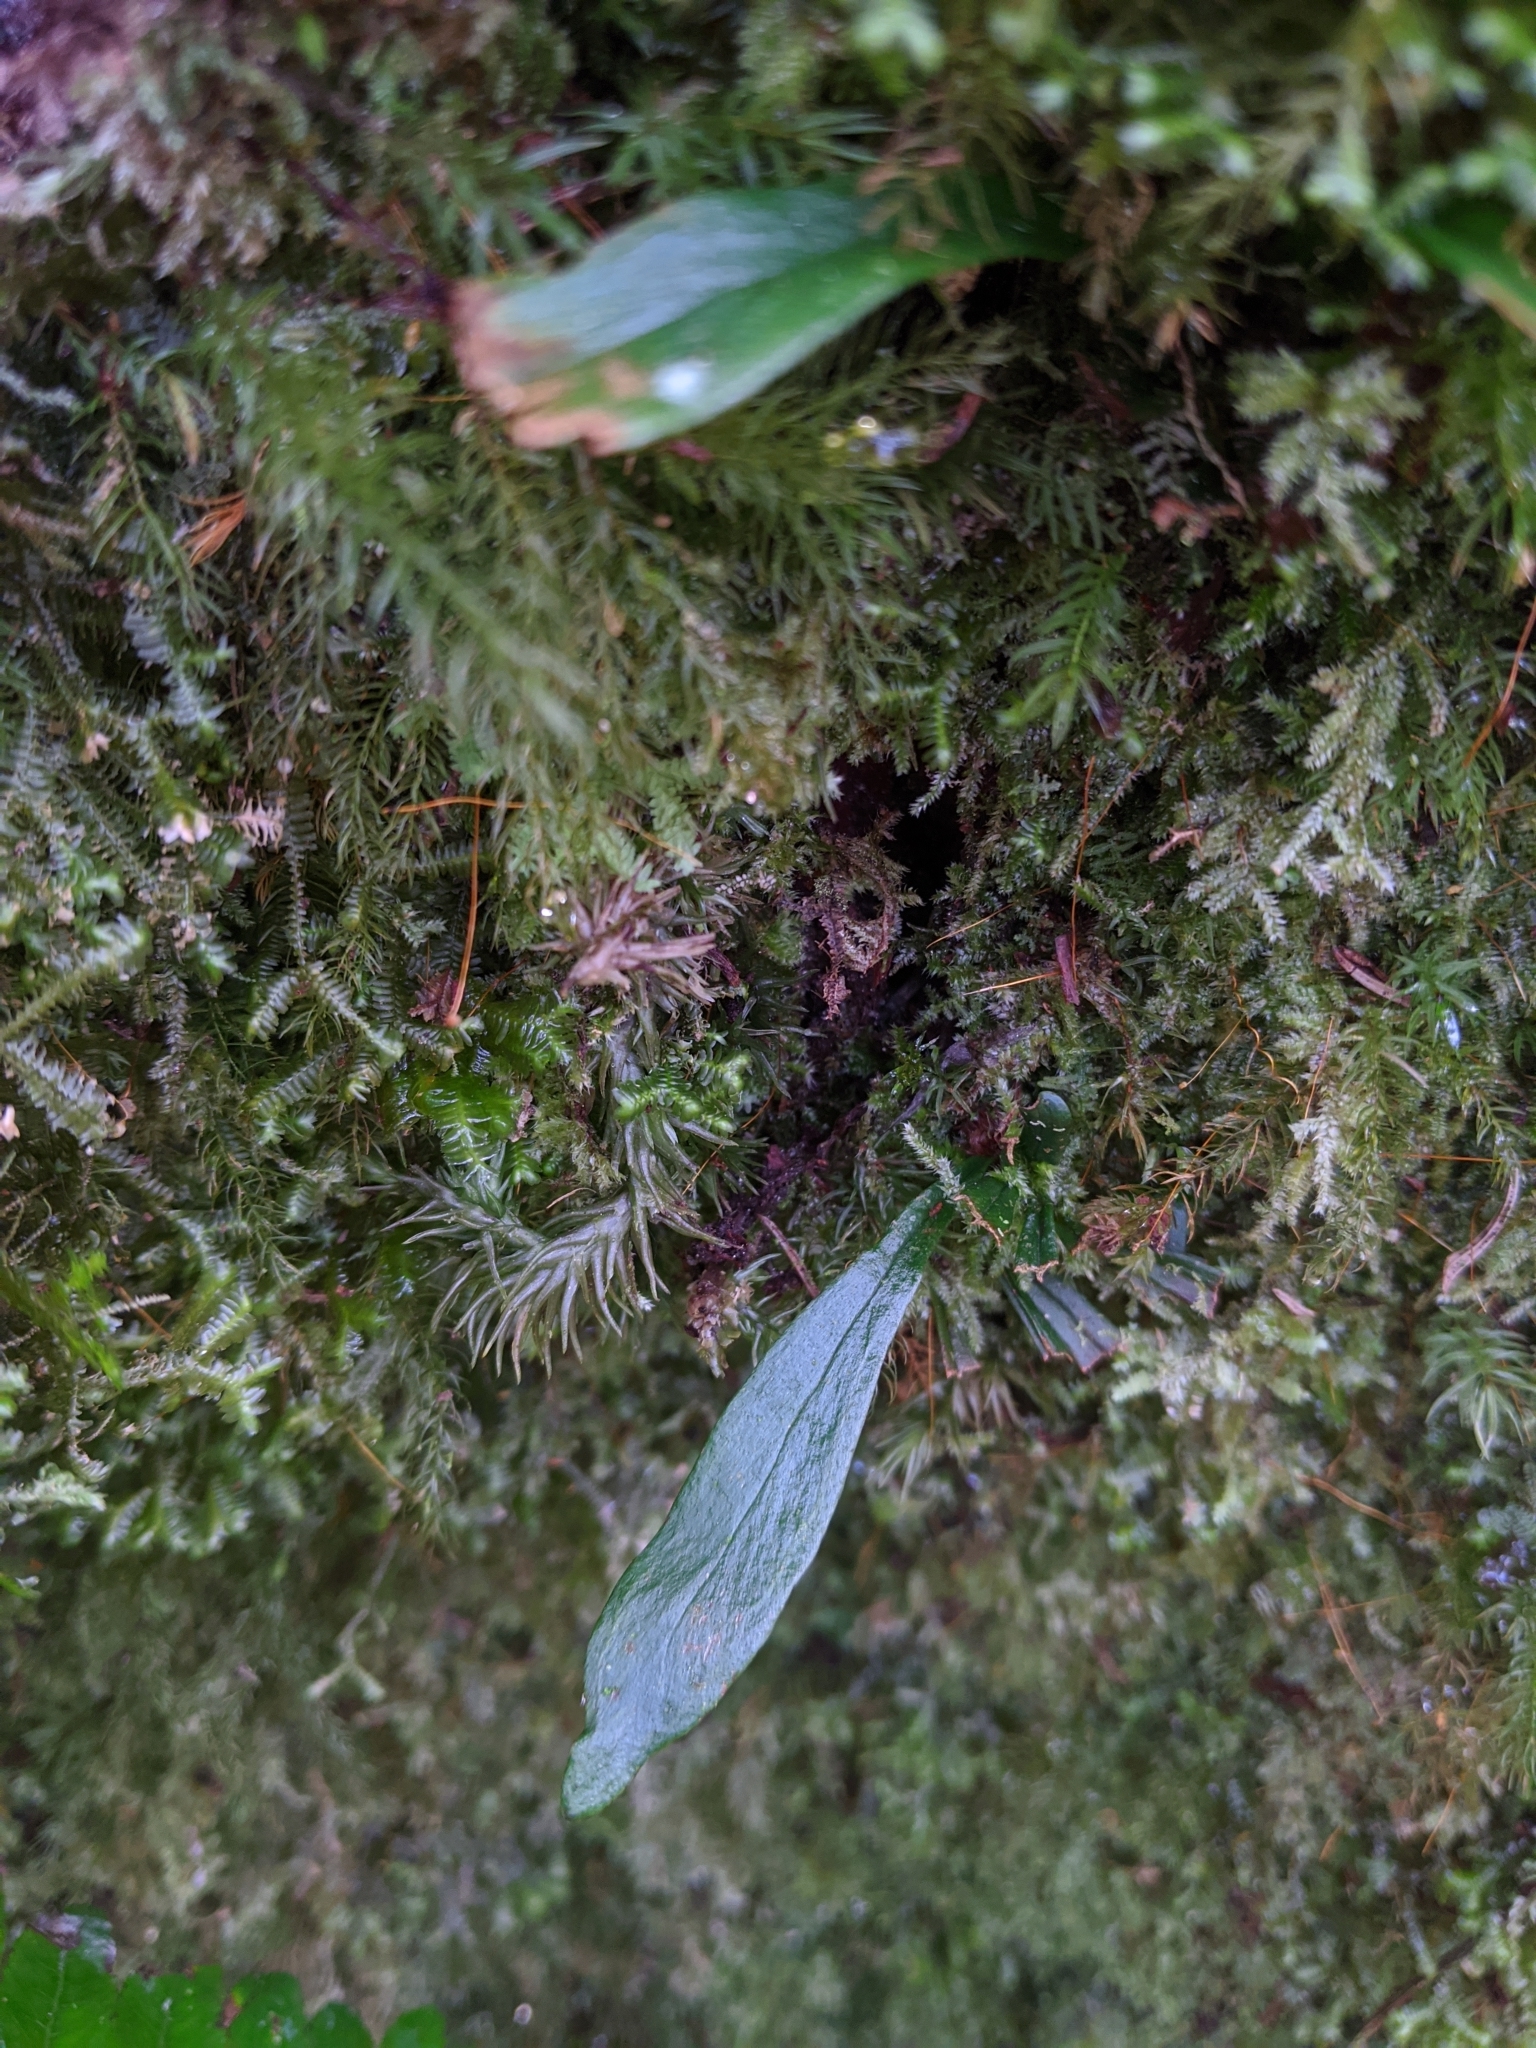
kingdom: Plantae
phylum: Tracheophyta
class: Polypodiopsida
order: Polypodiales
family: Pteridaceae
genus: Haplopteris
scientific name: Haplopteris yakushimensis
